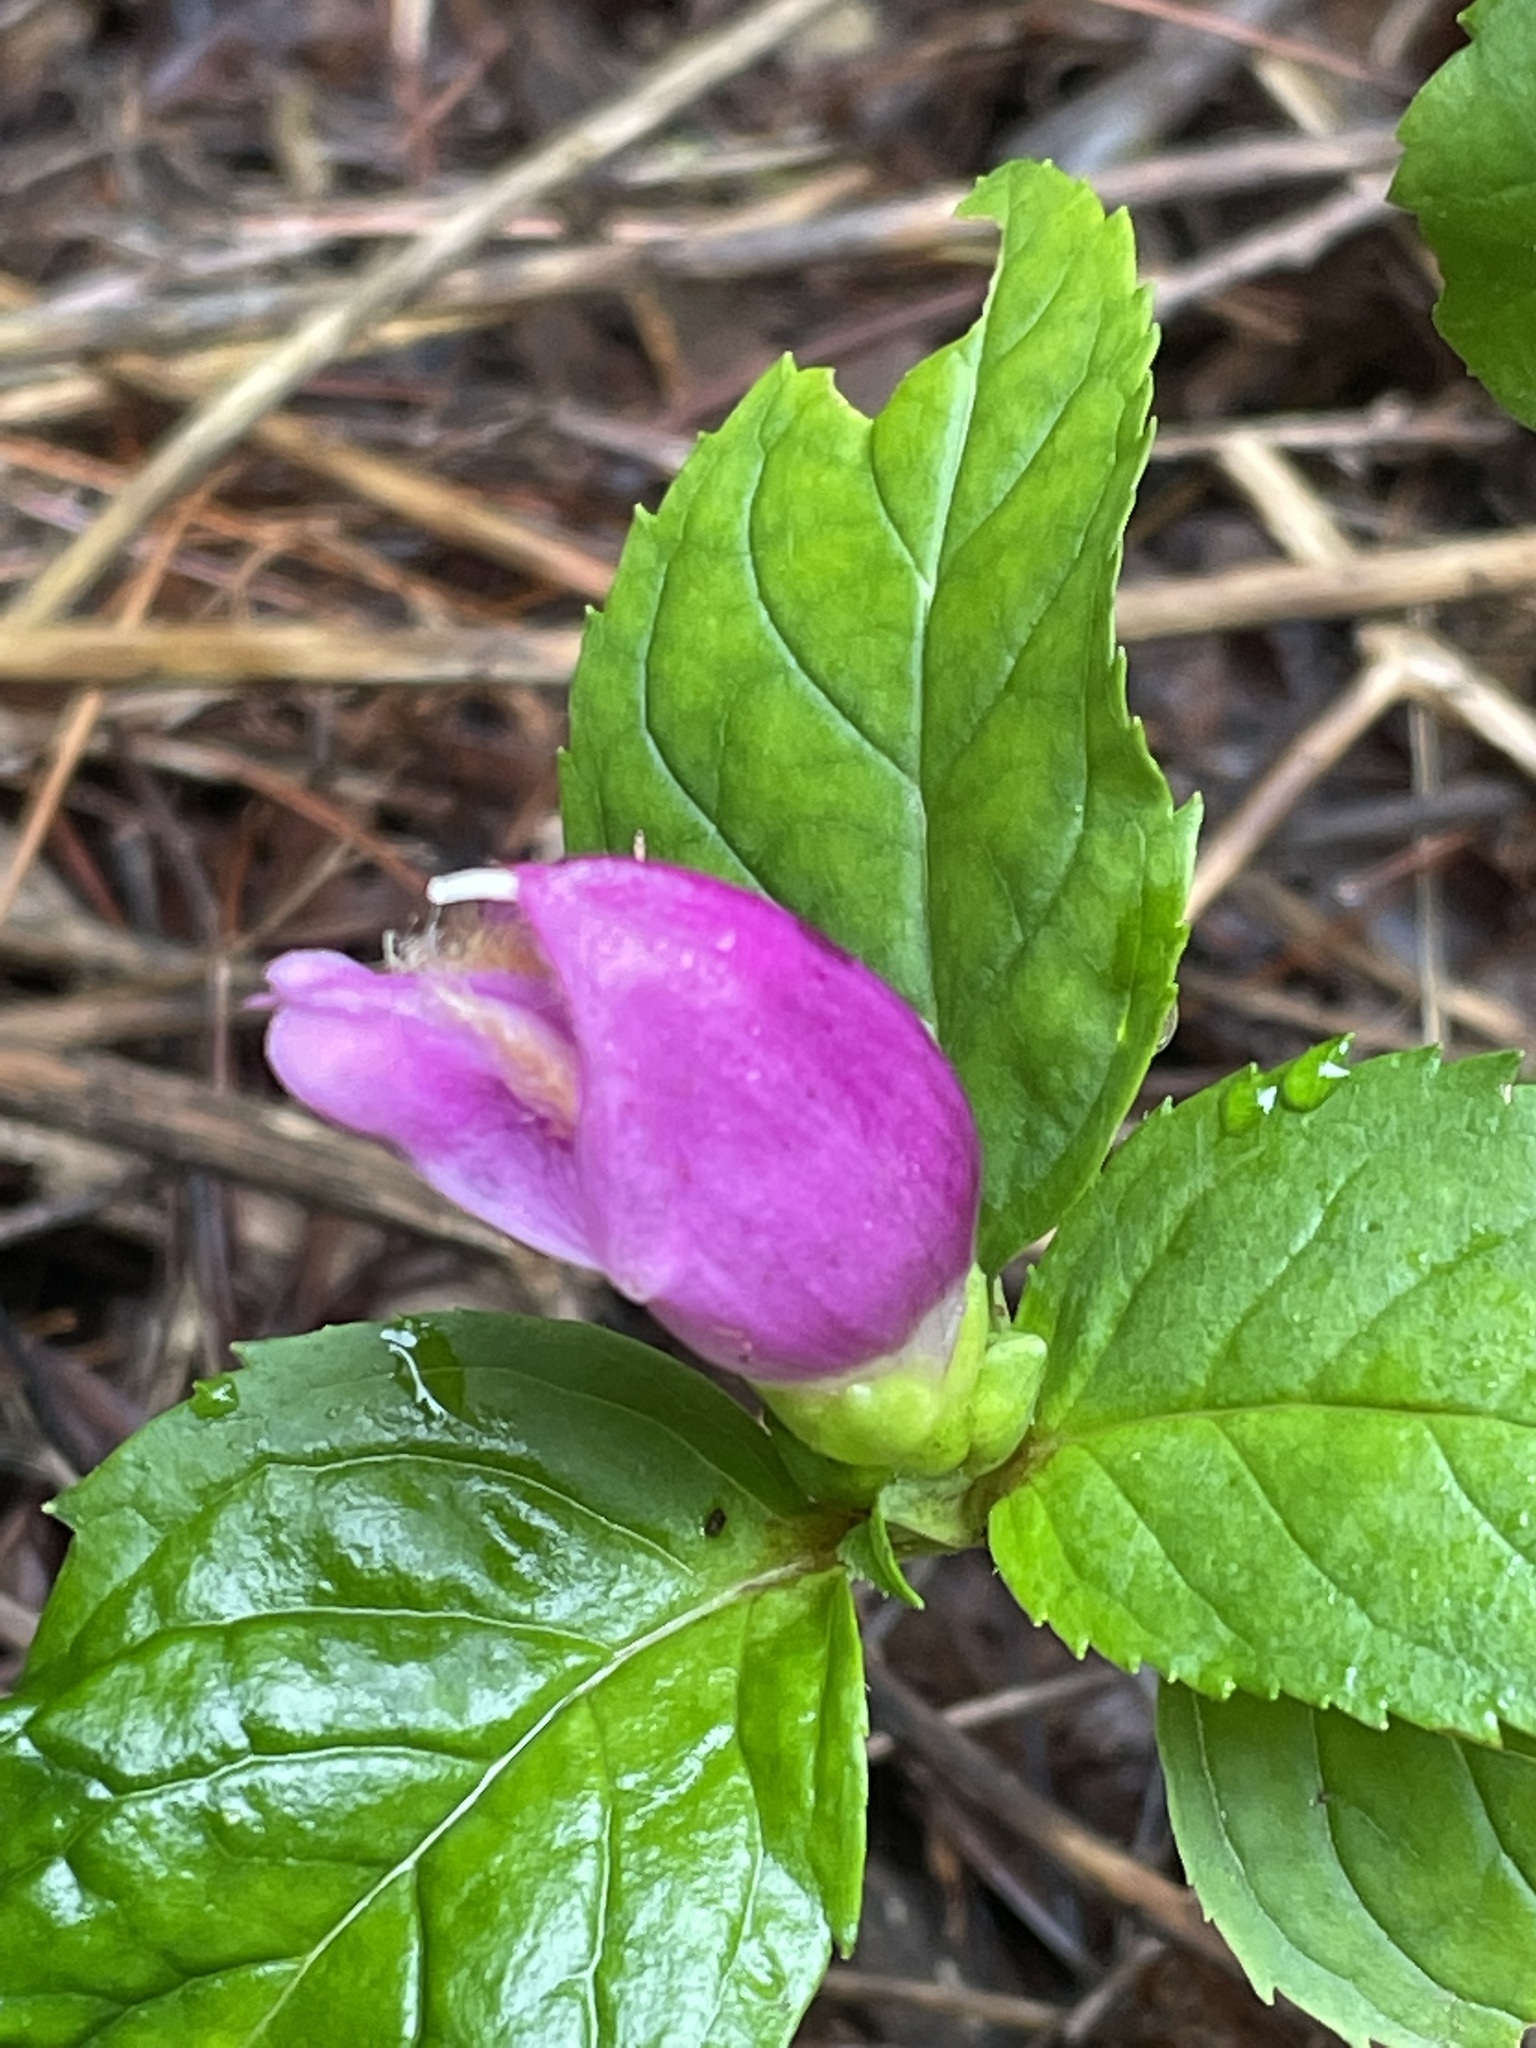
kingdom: Plantae
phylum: Tracheophyta
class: Magnoliopsida
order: Lamiales
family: Plantaginaceae
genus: Chelone
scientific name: Chelone lyonii
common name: Pink turtlehead
